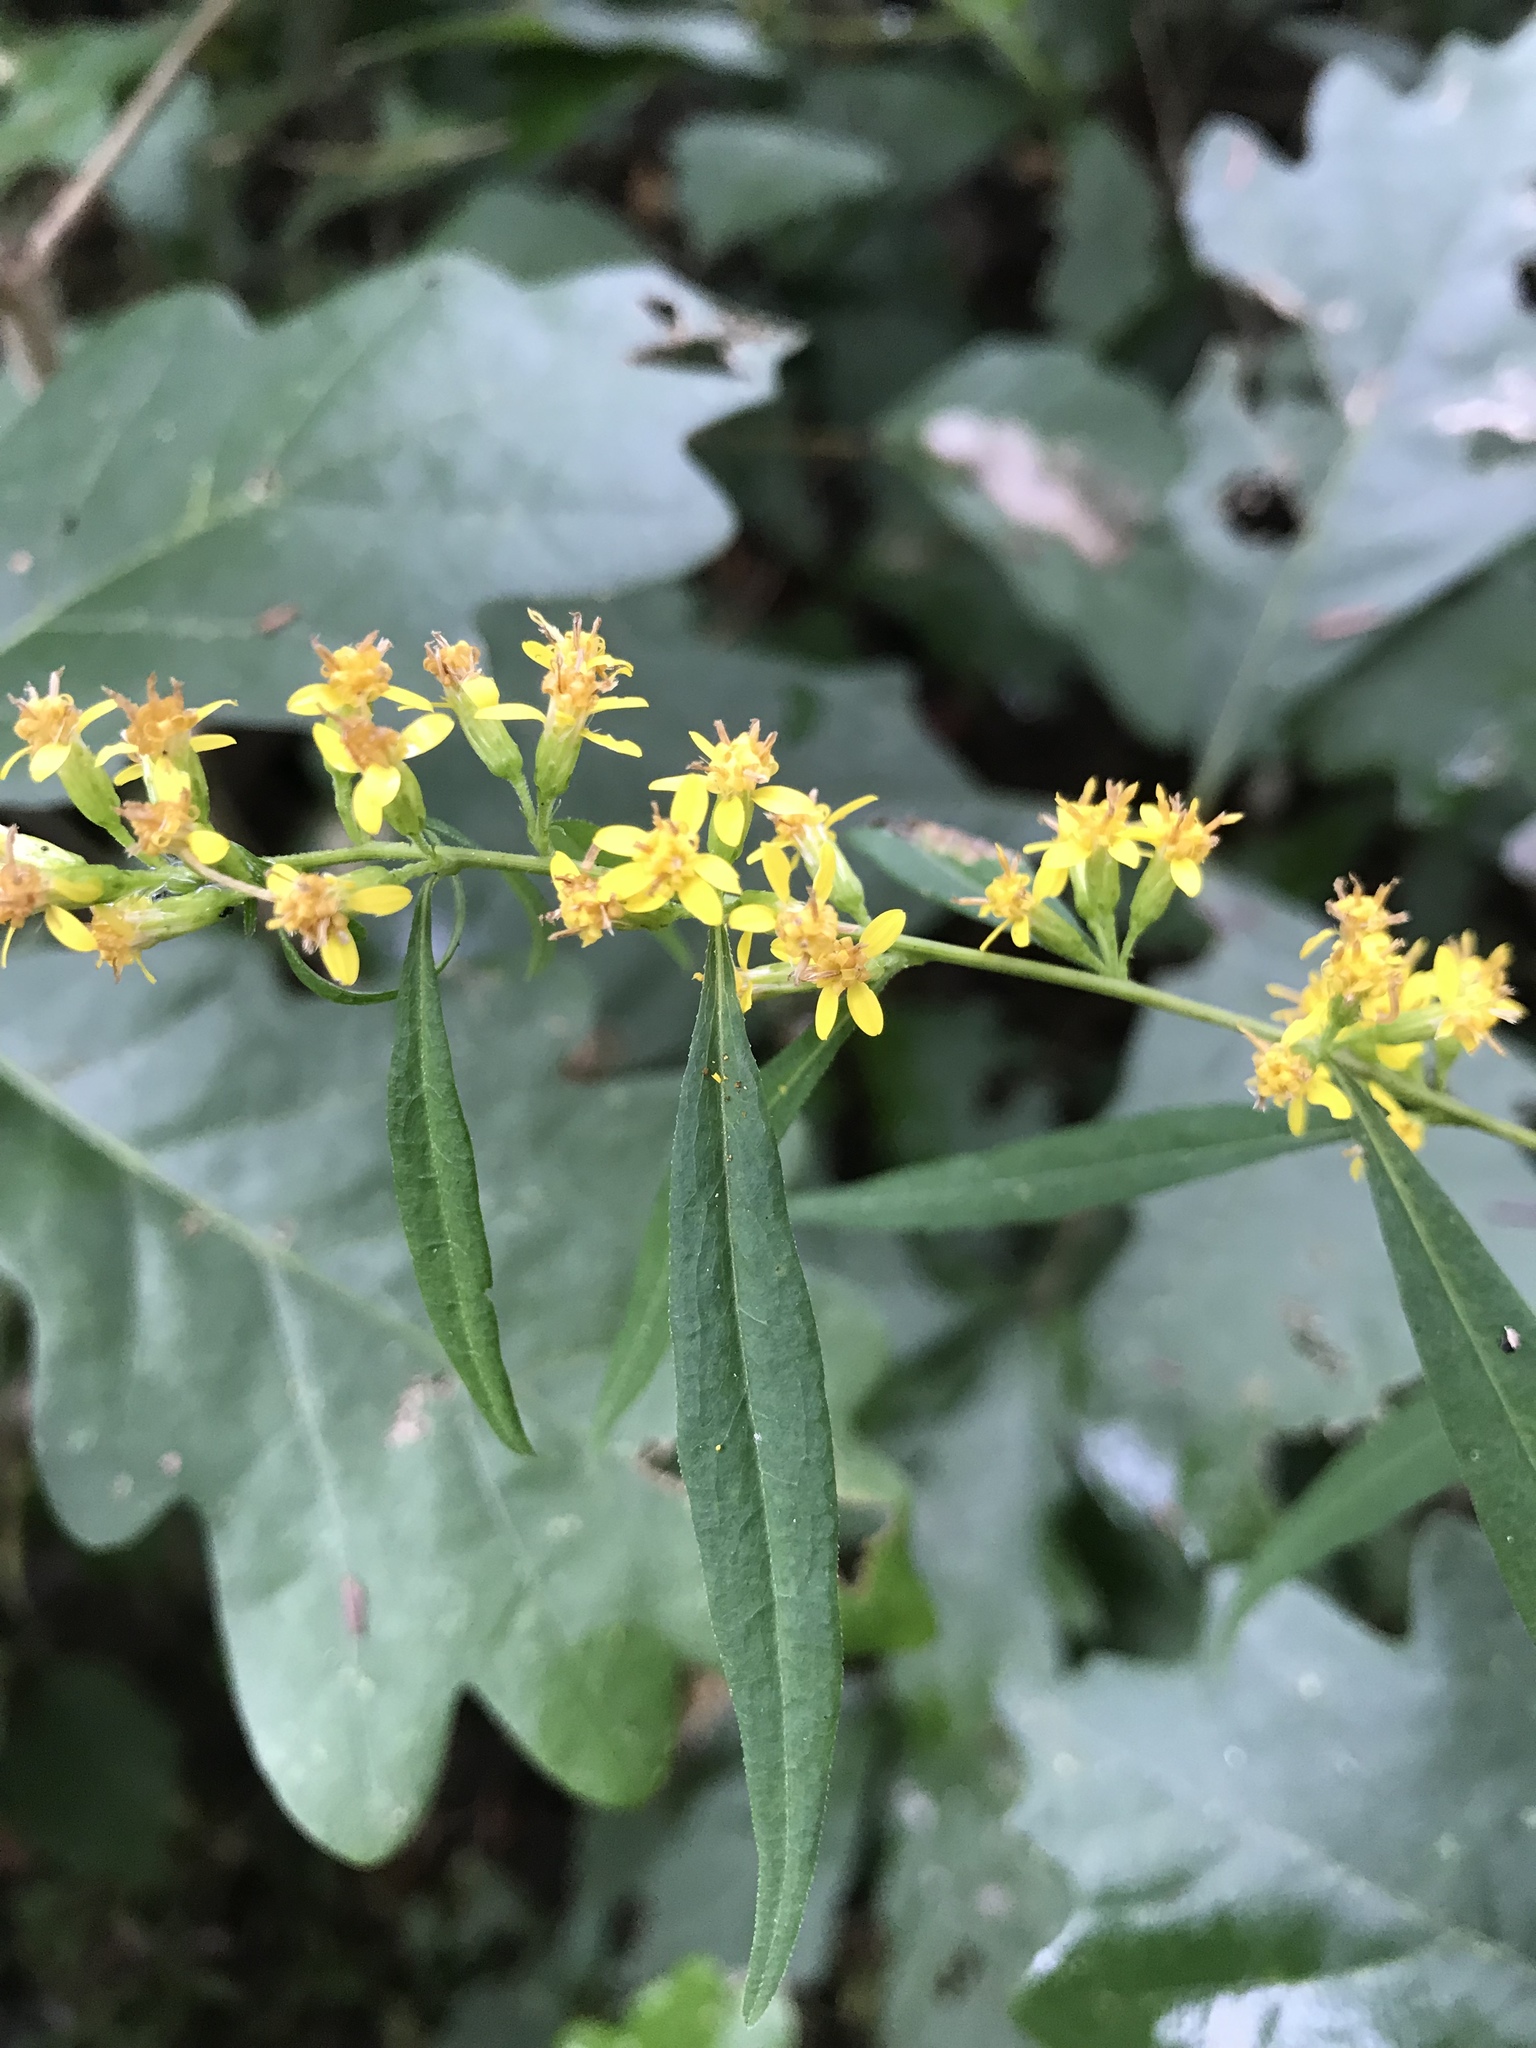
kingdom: Plantae
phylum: Tracheophyta
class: Magnoliopsida
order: Asterales
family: Asteraceae
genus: Solidago
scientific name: Solidago caesia
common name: Woodland goldenrod
